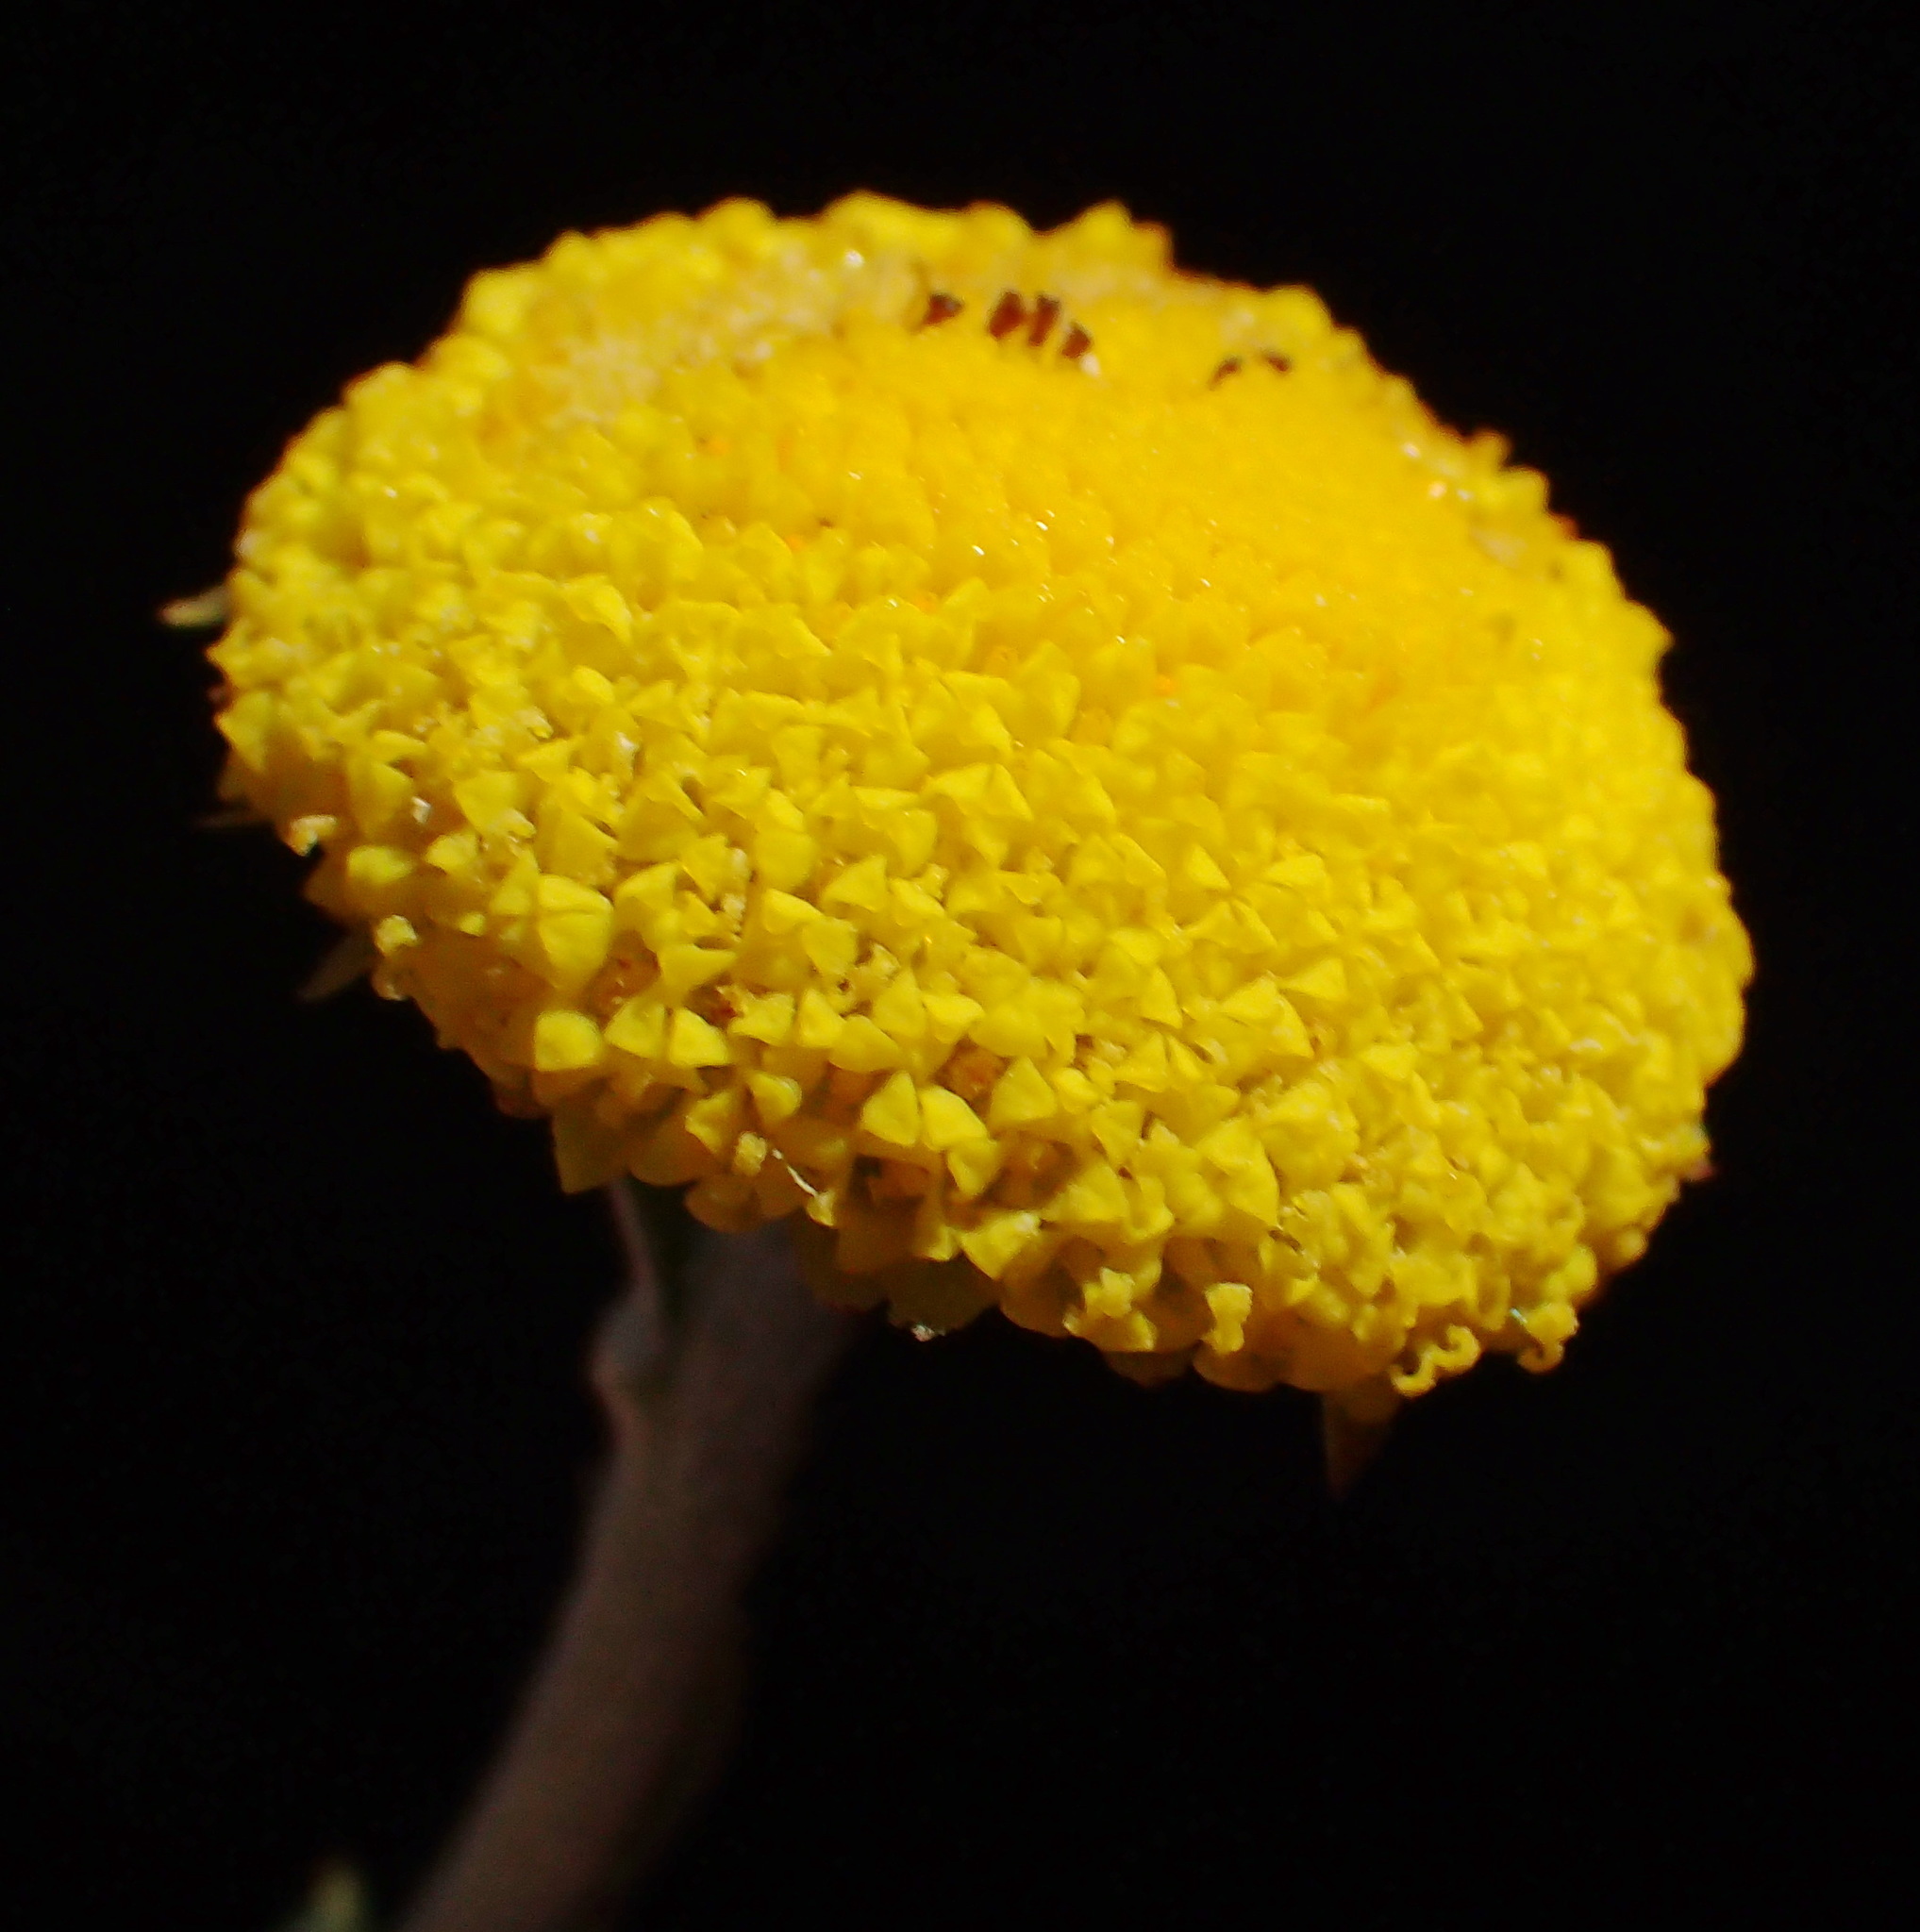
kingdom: Plantae
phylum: Tracheophyta
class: Magnoliopsida
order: Asterales
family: Asteraceae
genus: Schistostephium
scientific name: Schistostephium umbellatum
